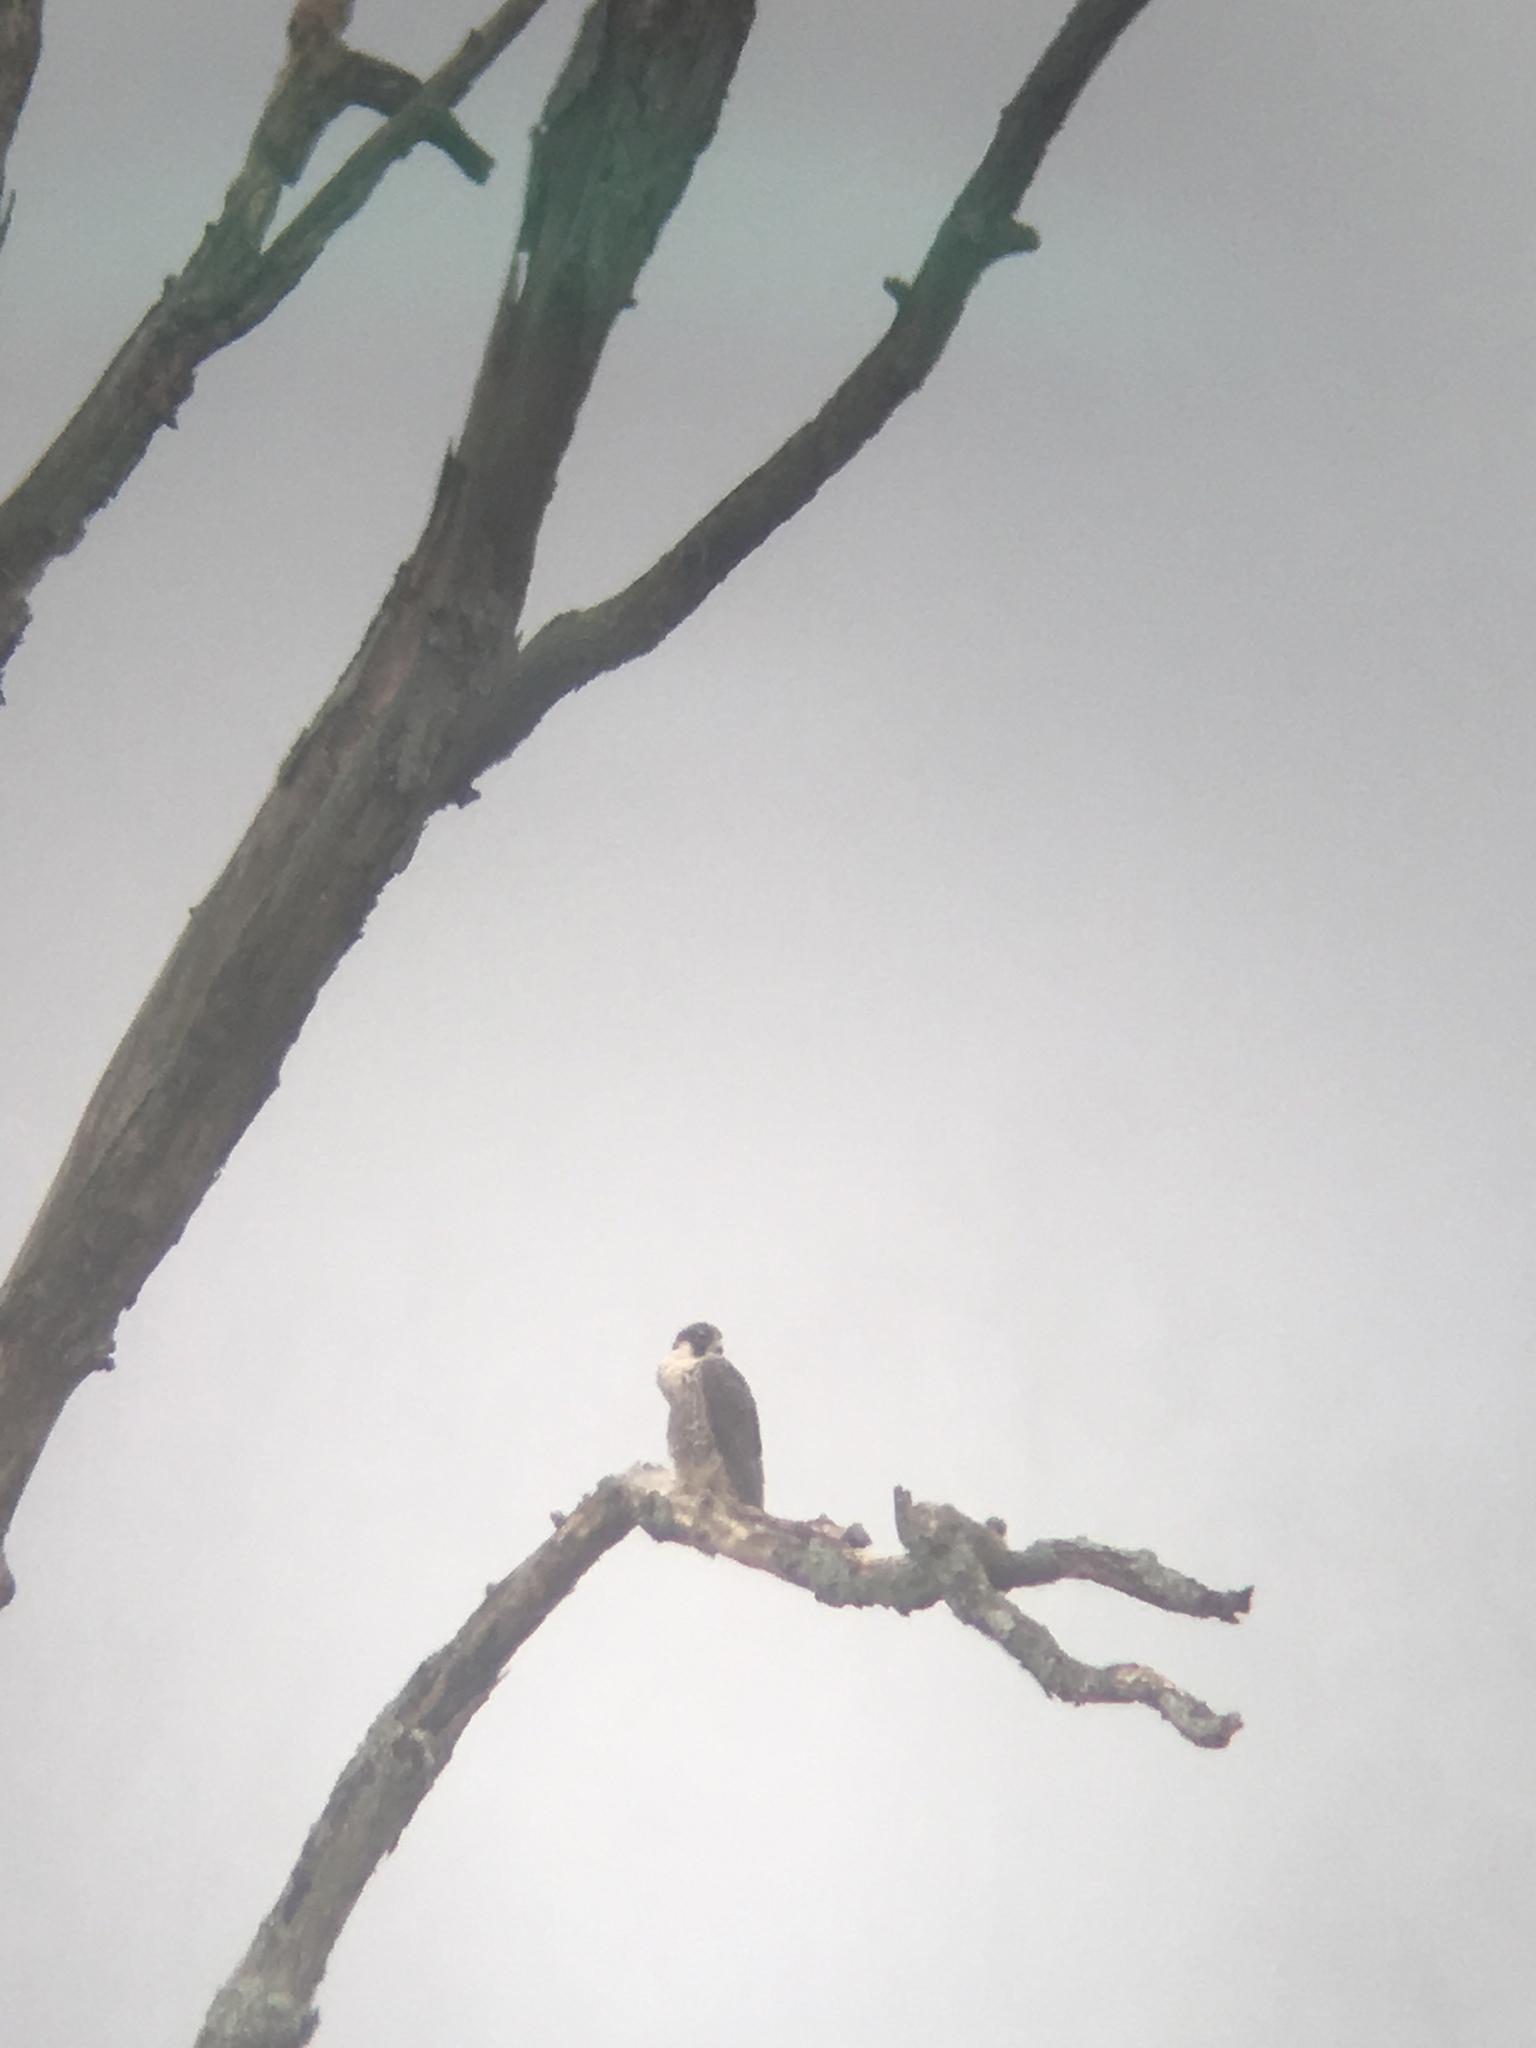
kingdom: Animalia
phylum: Chordata
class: Aves
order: Falconiformes
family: Falconidae
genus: Falco
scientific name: Falco peregrinus
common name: Peregrine falcon
